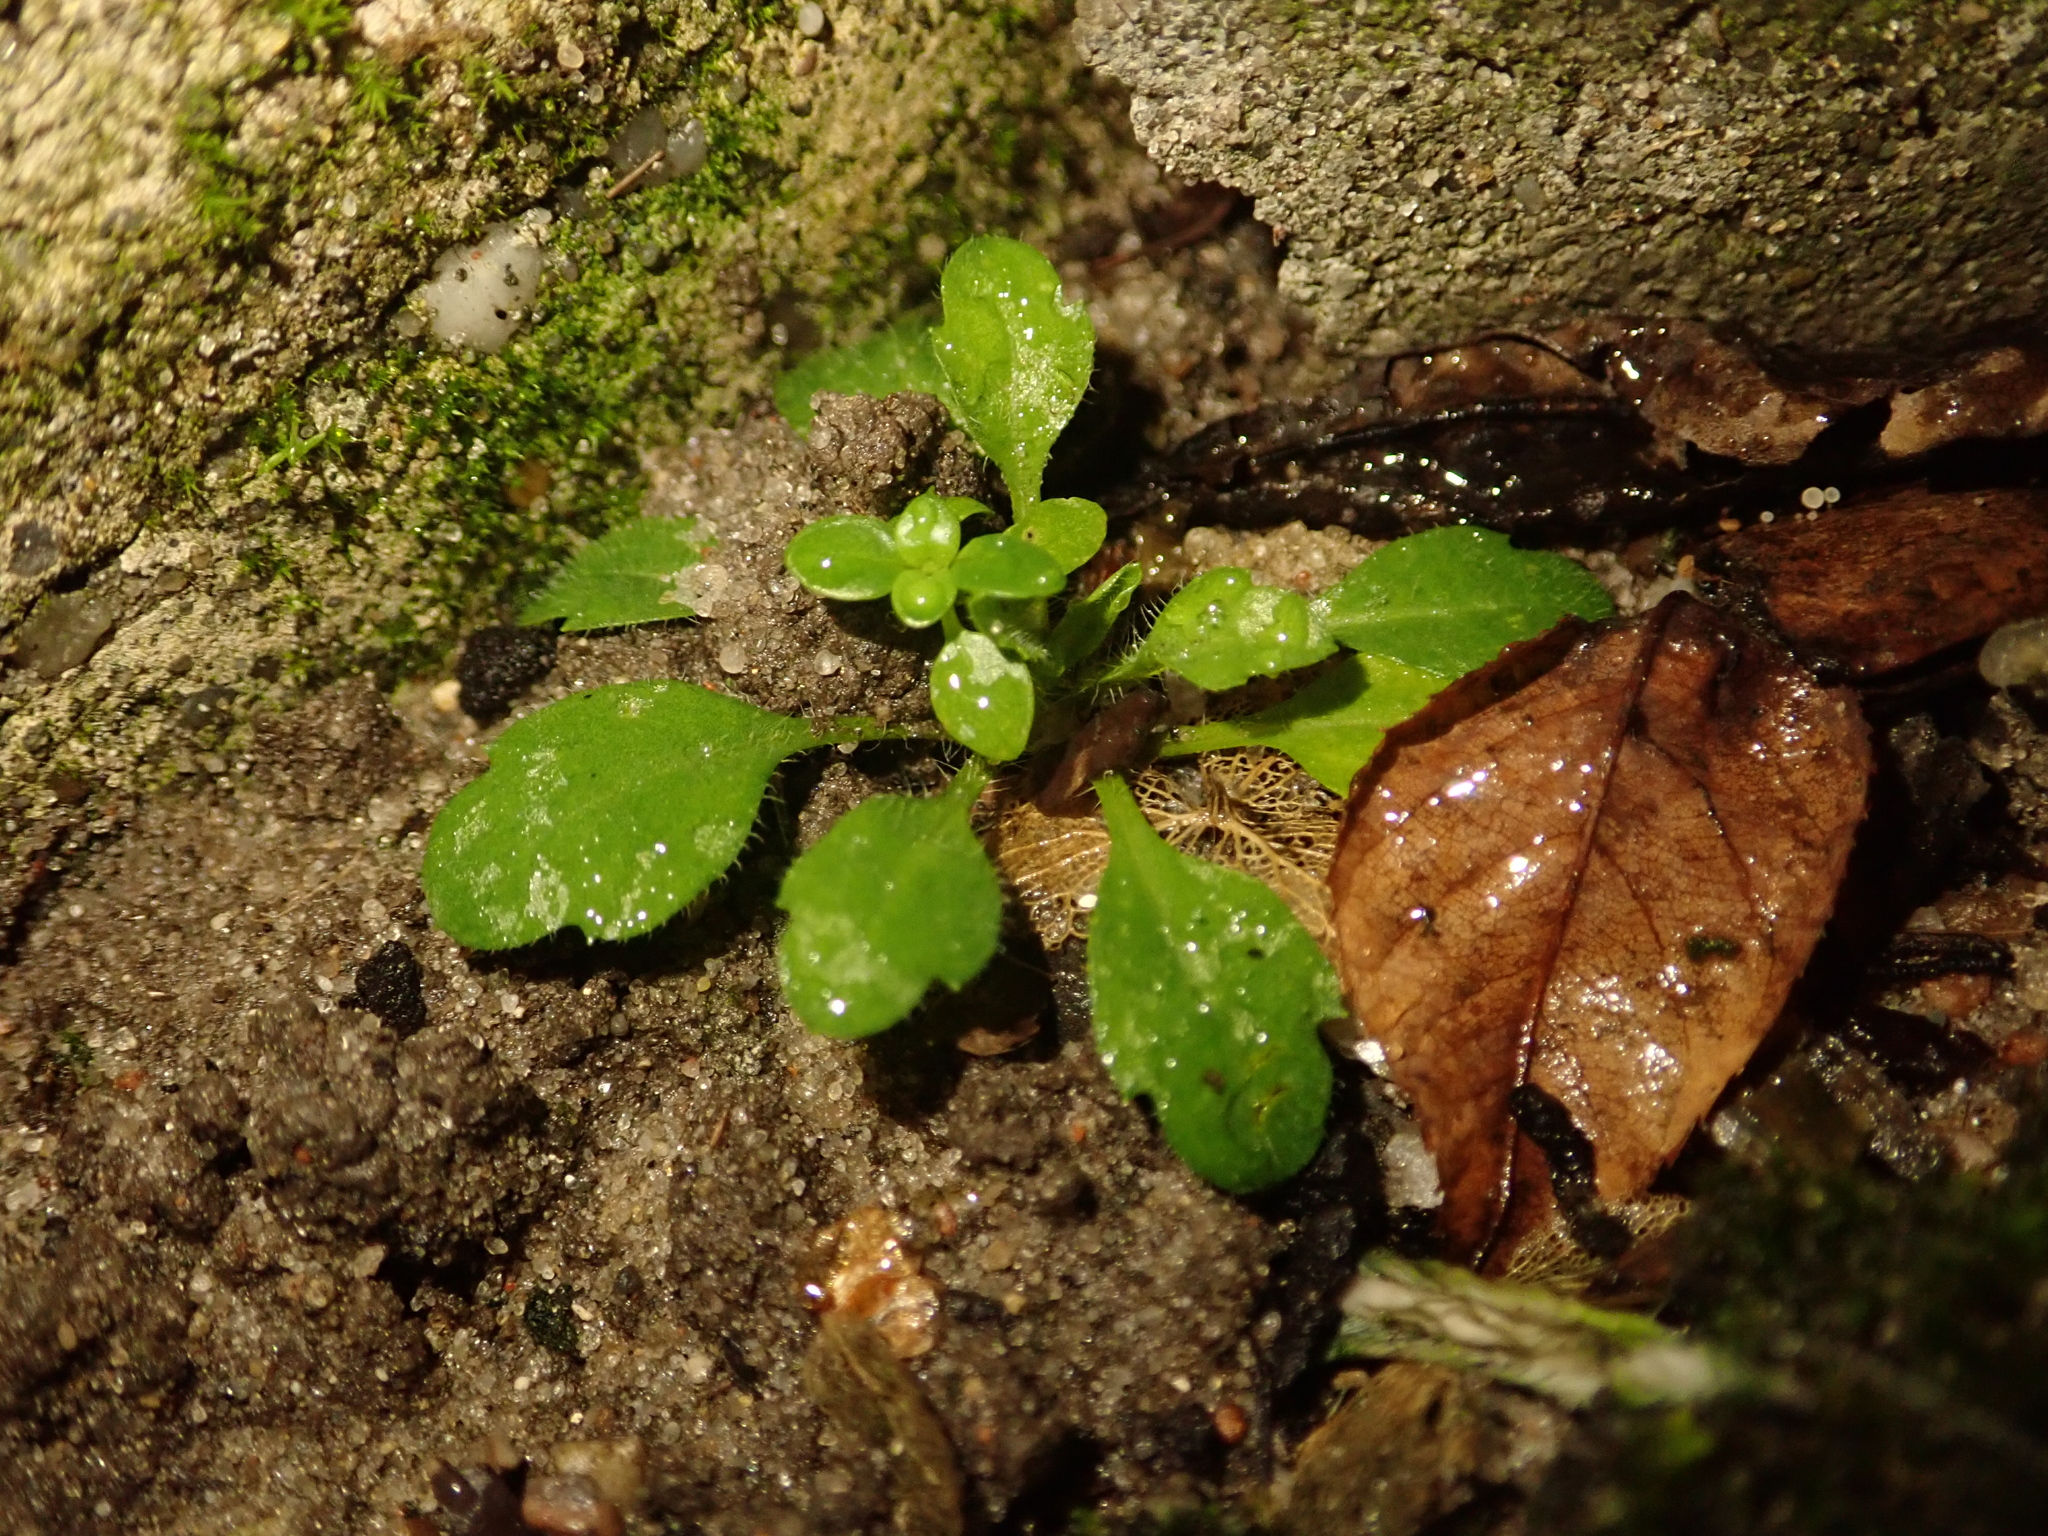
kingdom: Plantae
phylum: Tracheophyta
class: Magnoliopsida
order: Asterales
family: Asteraceae
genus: Erigeron
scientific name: Erigeron canadensis
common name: Canadian fleabane
